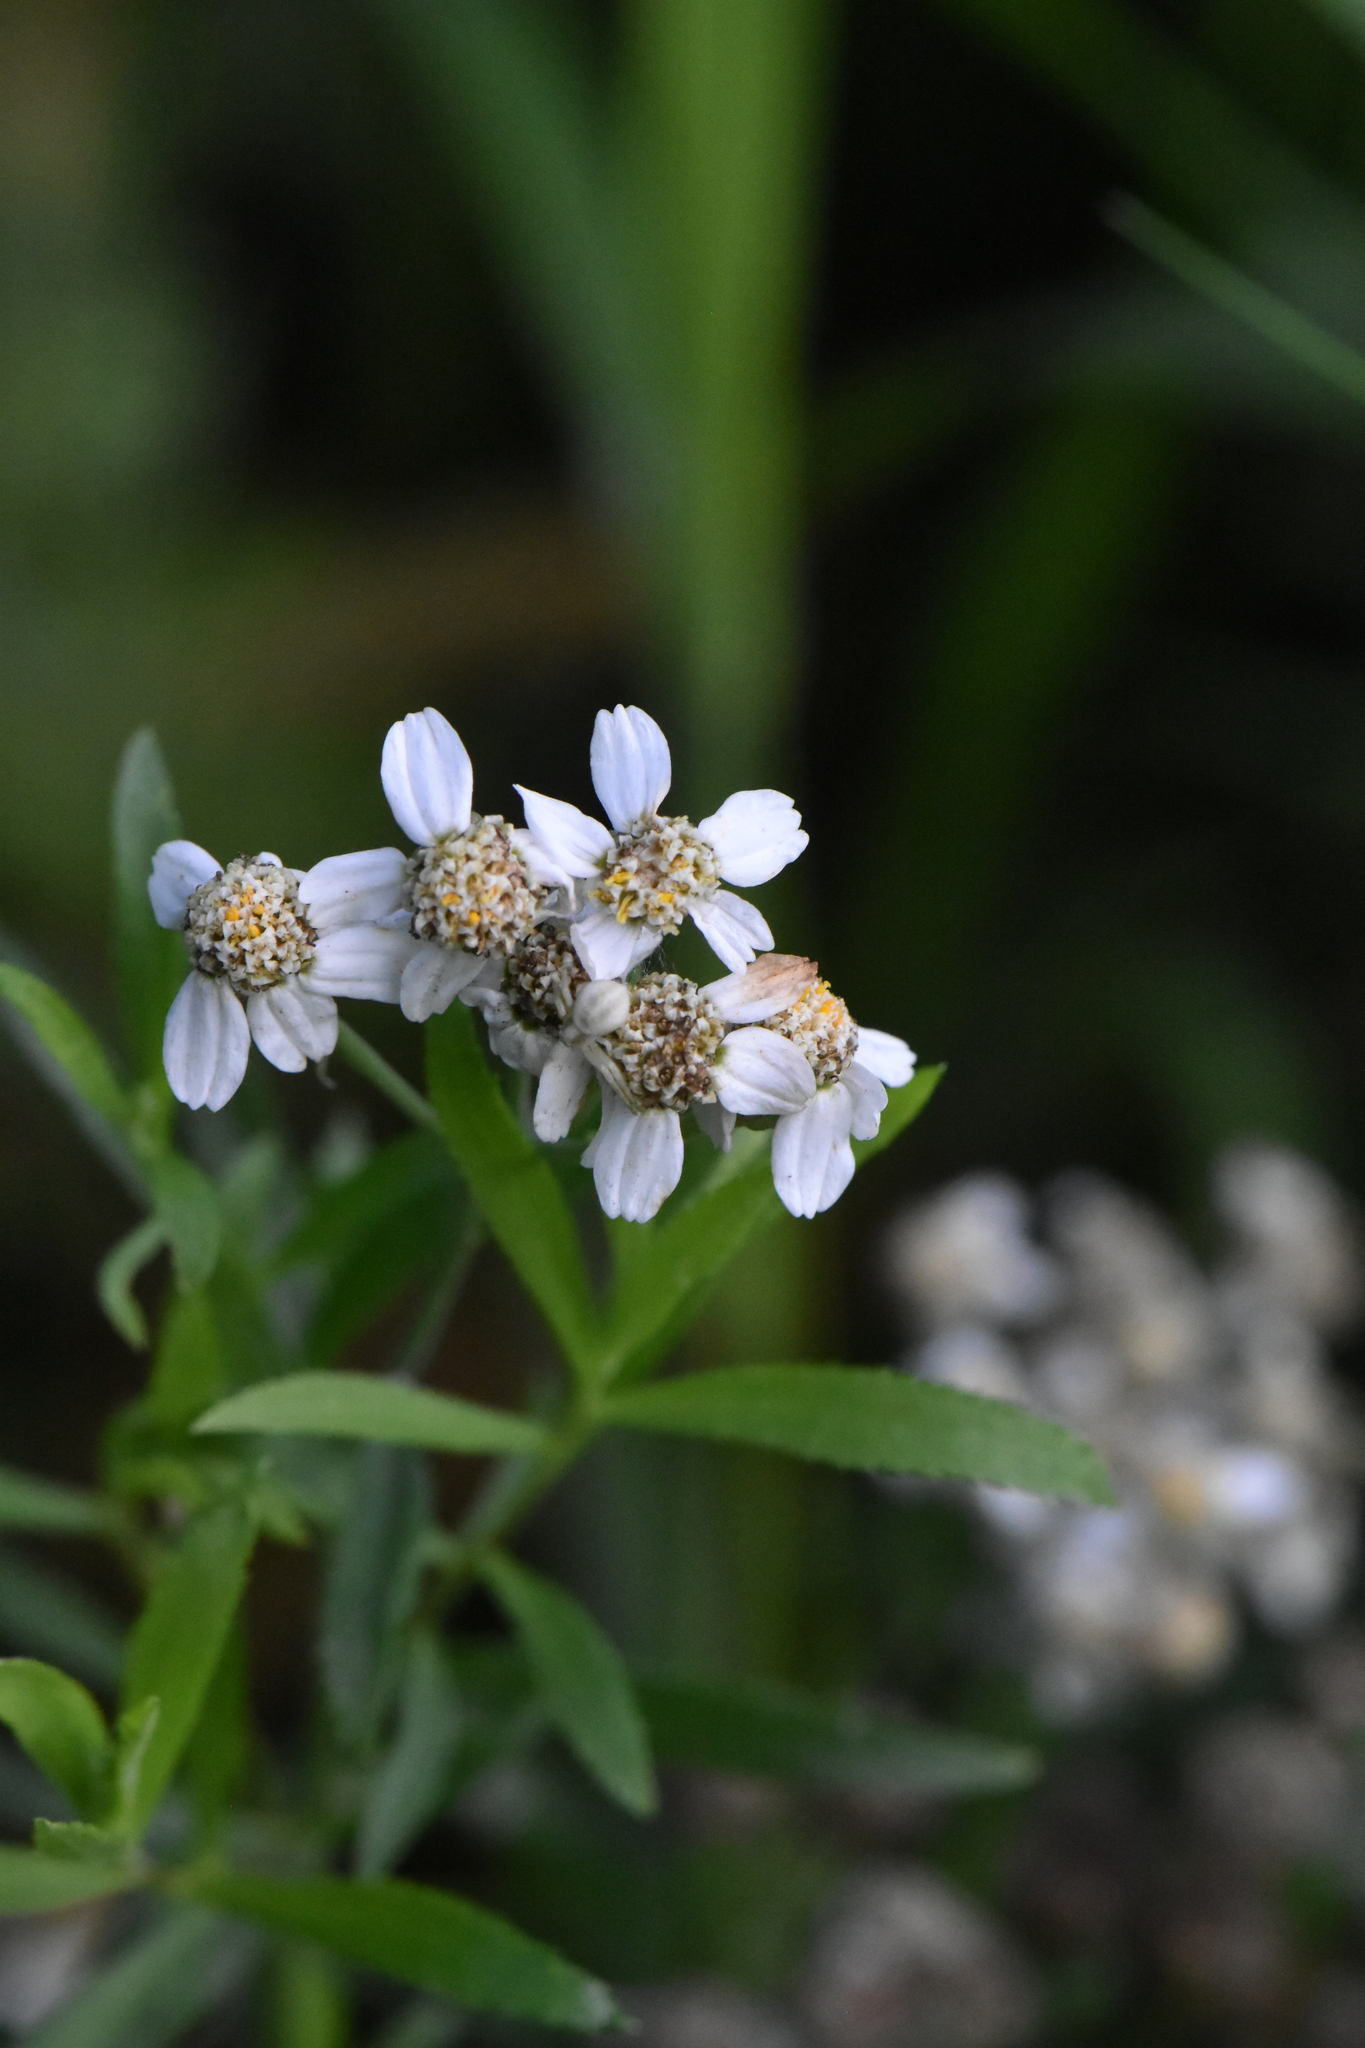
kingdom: Plantae
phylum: Tracheophyta
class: Magnoliopsida
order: Asterales
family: Asteraceae
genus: Achillea
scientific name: Achillea ptarmica
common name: Sneezeweed
